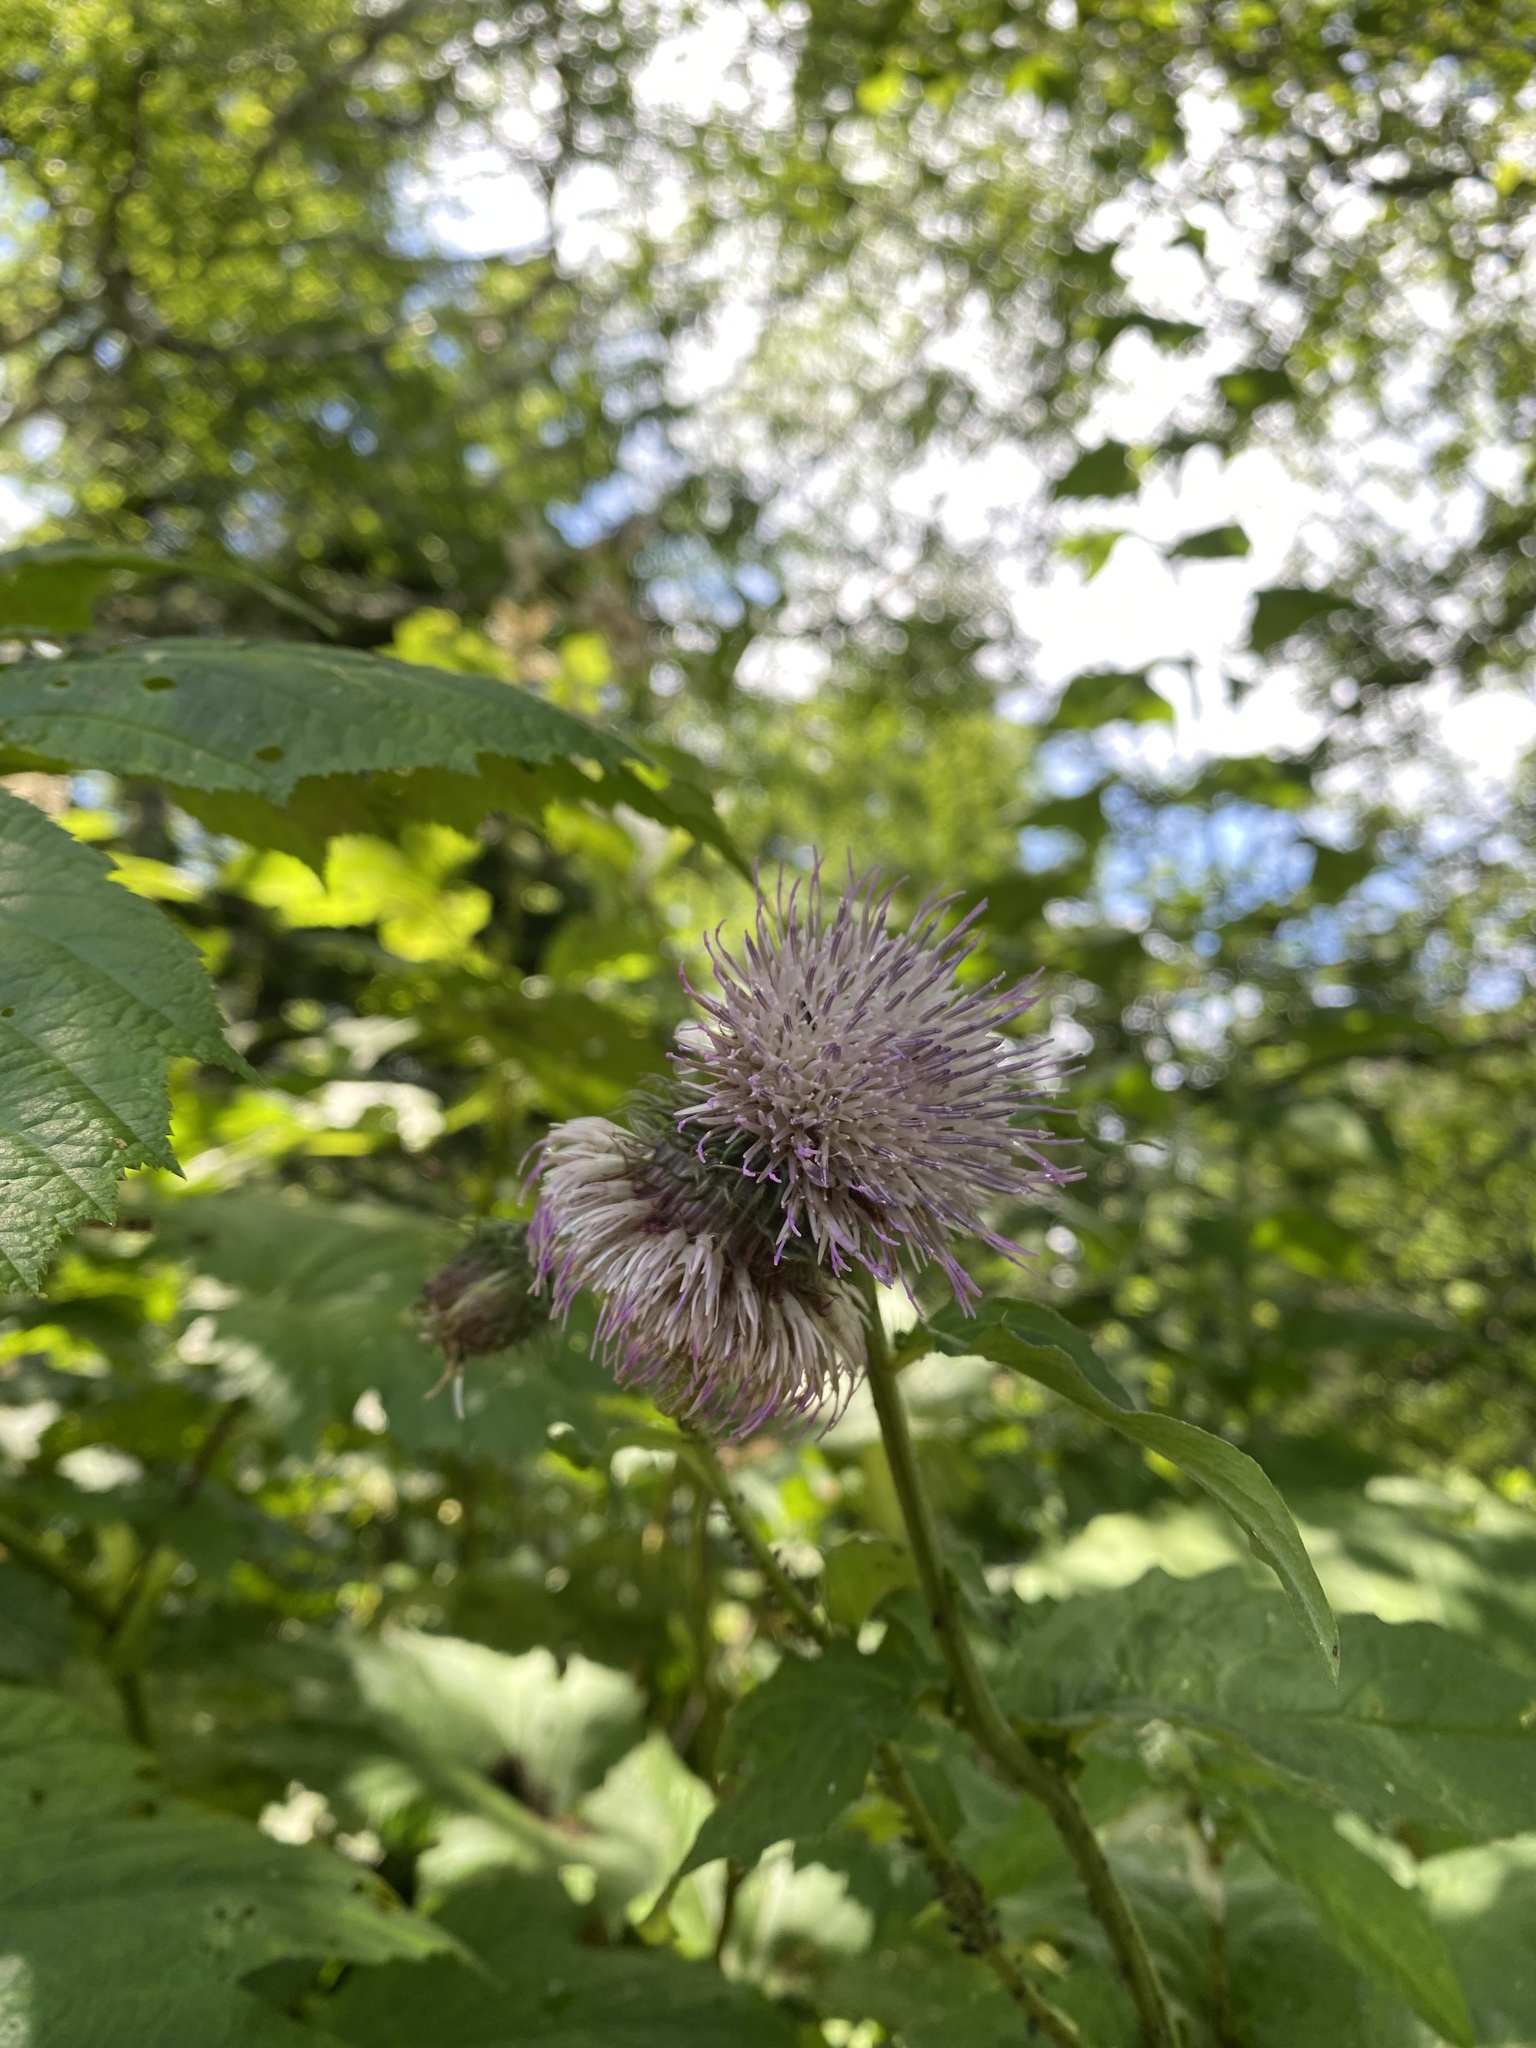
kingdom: Plantae
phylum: Tracheophyta
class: Magnoliopsida
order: Asterales
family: Asteraceae
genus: Cirsium
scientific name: Cirsium kamtschaticum
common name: Kamchatka thistle
